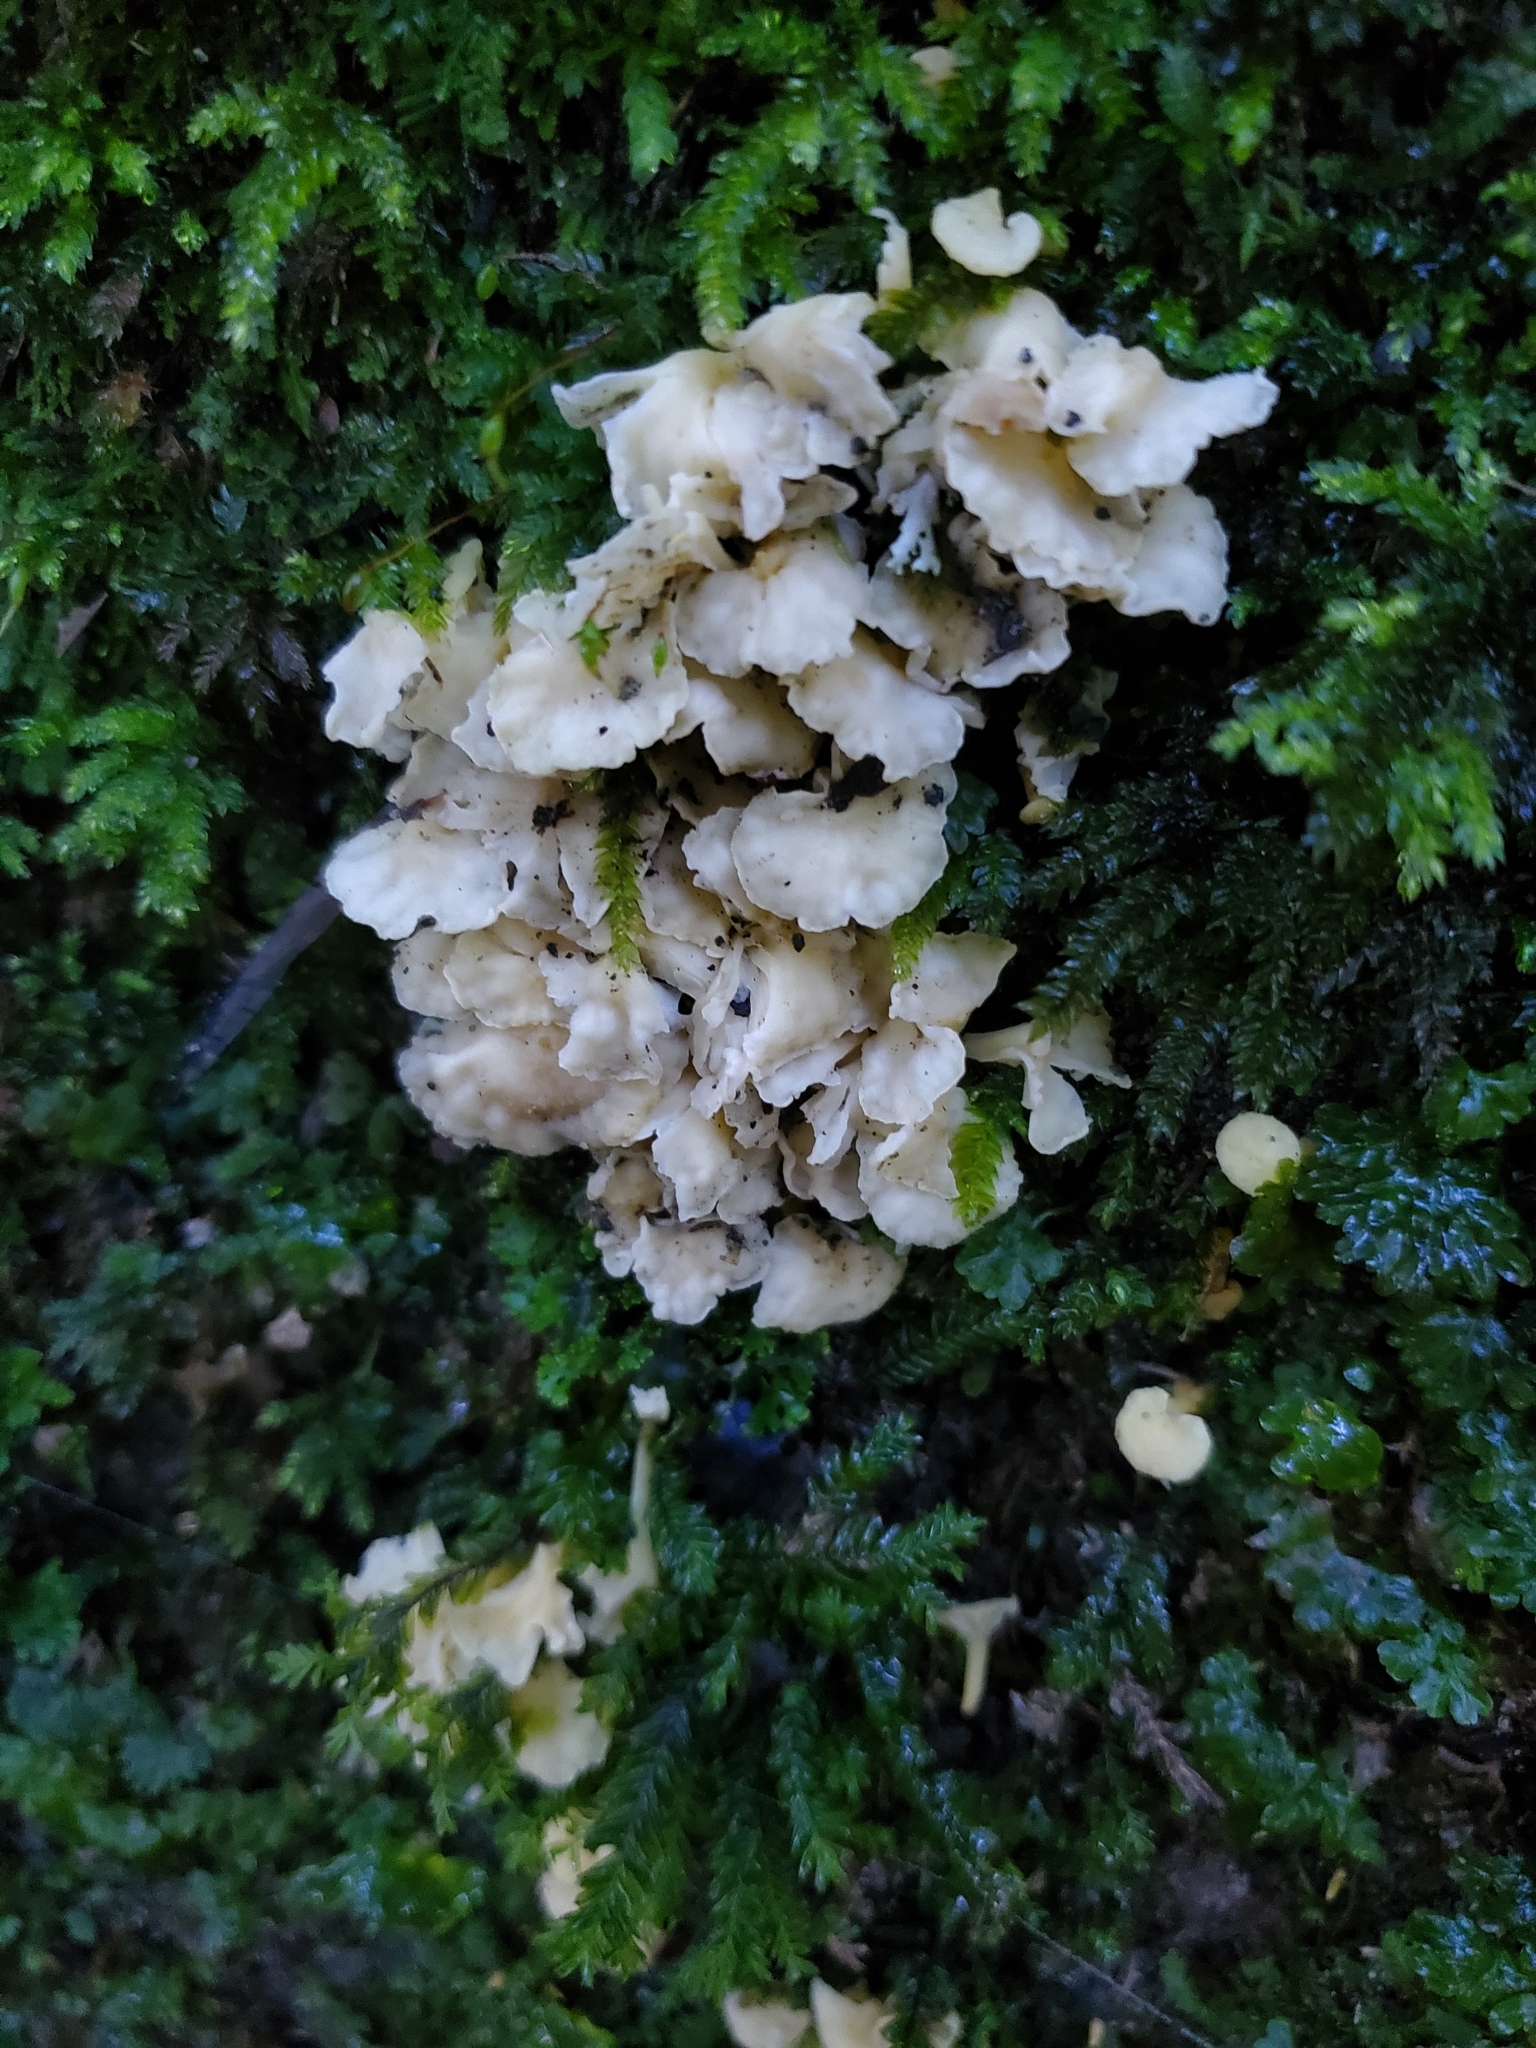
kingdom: Fungi
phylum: Basidiomycota
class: Agaricomycetes
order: Cantharellales
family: Hydnaceae
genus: Cantharellus
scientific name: Cantharellus wellingtonensis
